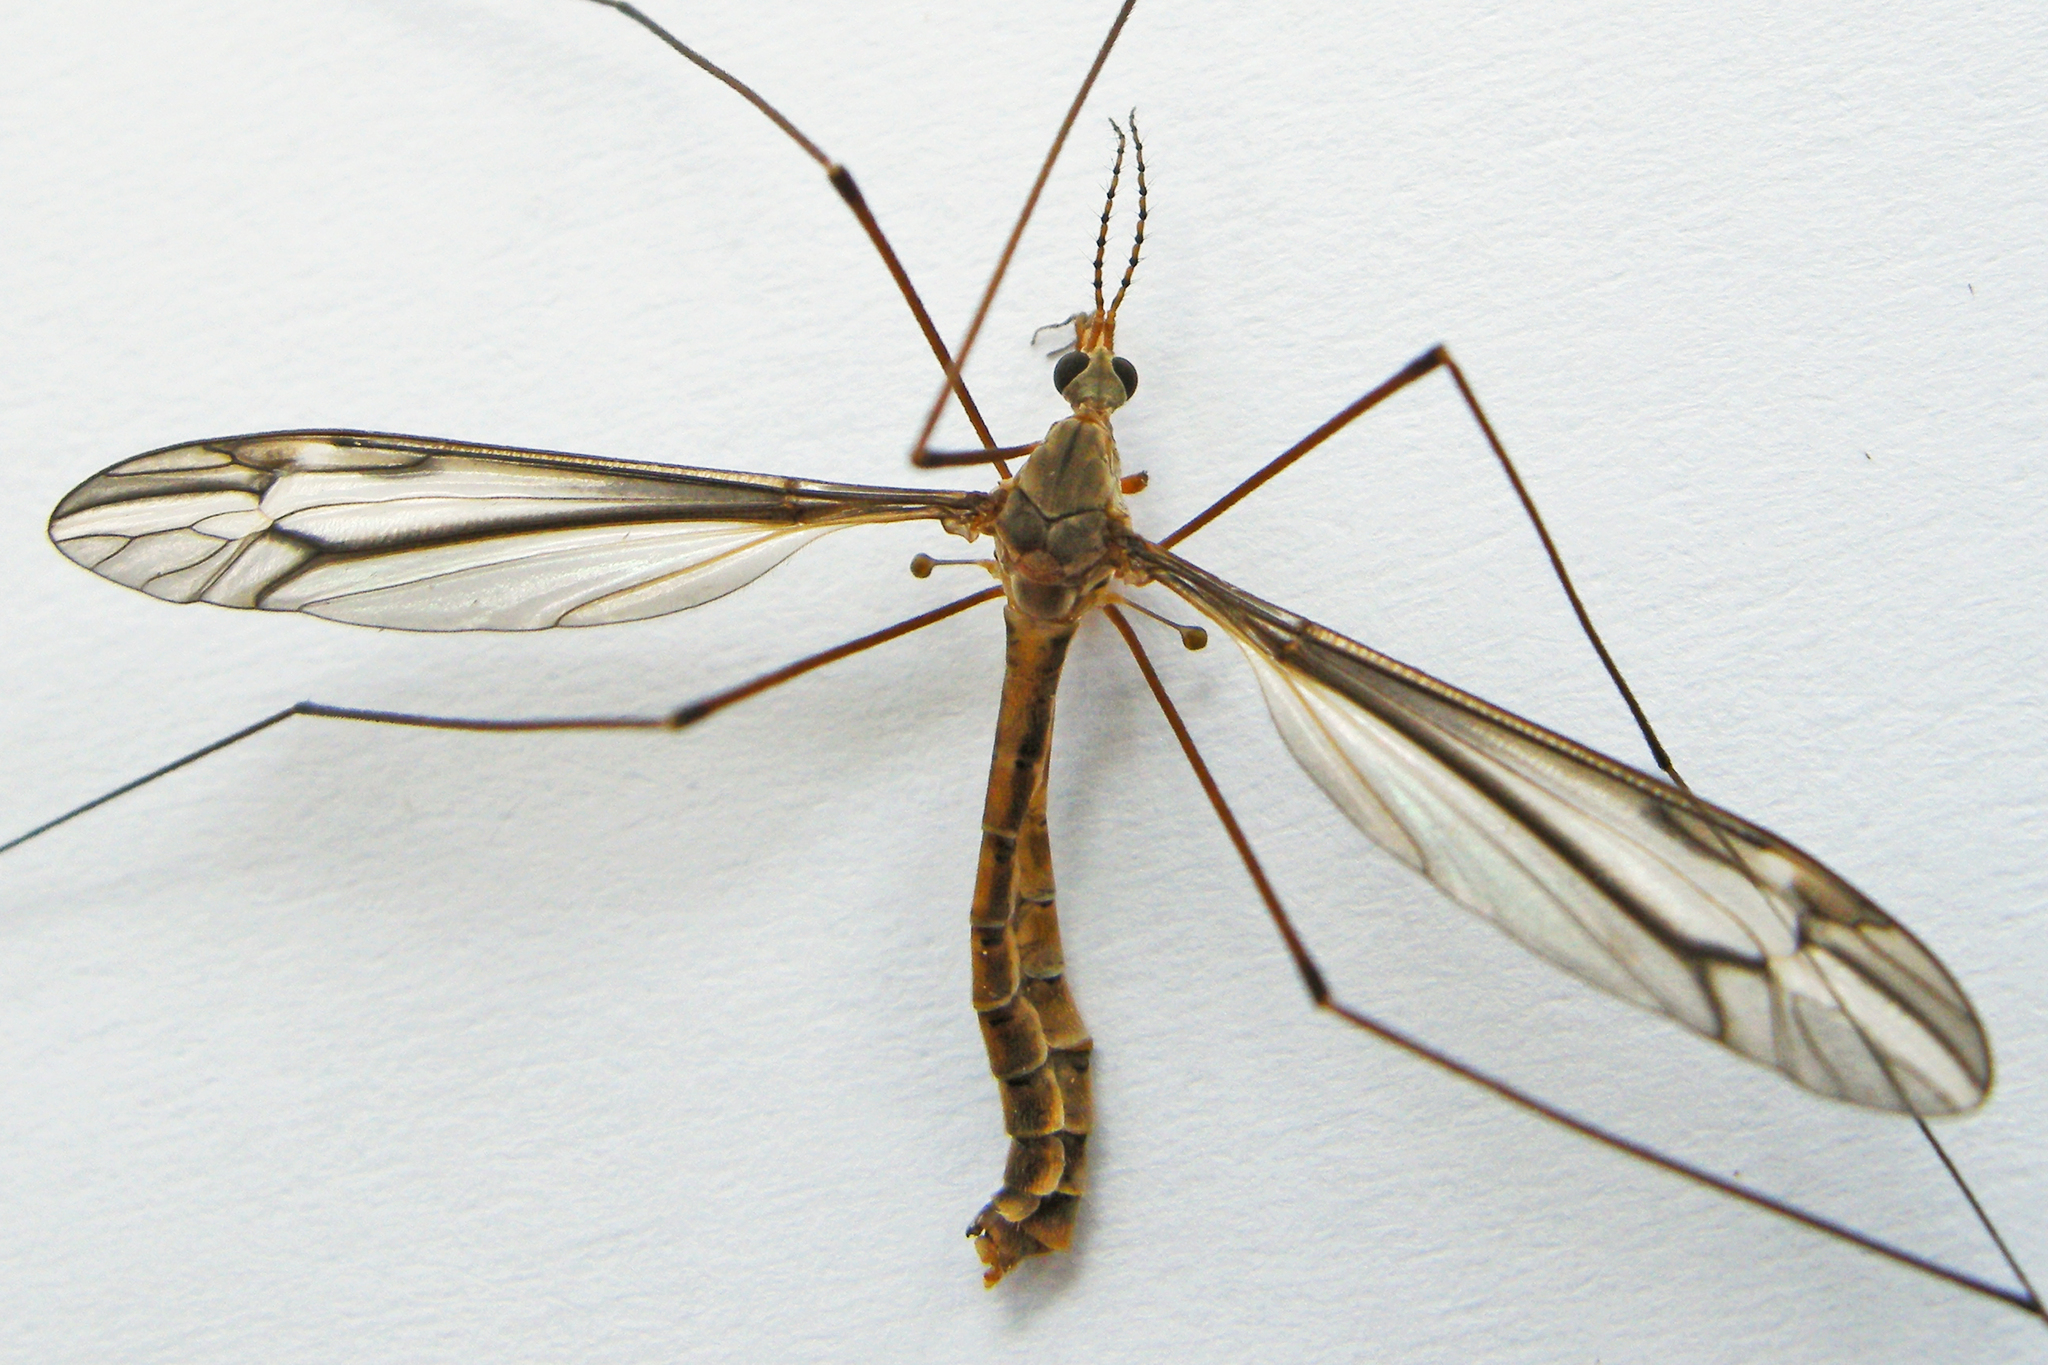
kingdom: Animalia
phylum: Arthropoda
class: Insecta
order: Diptera
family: Tipulidae
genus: Tipula
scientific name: Tipula furca
